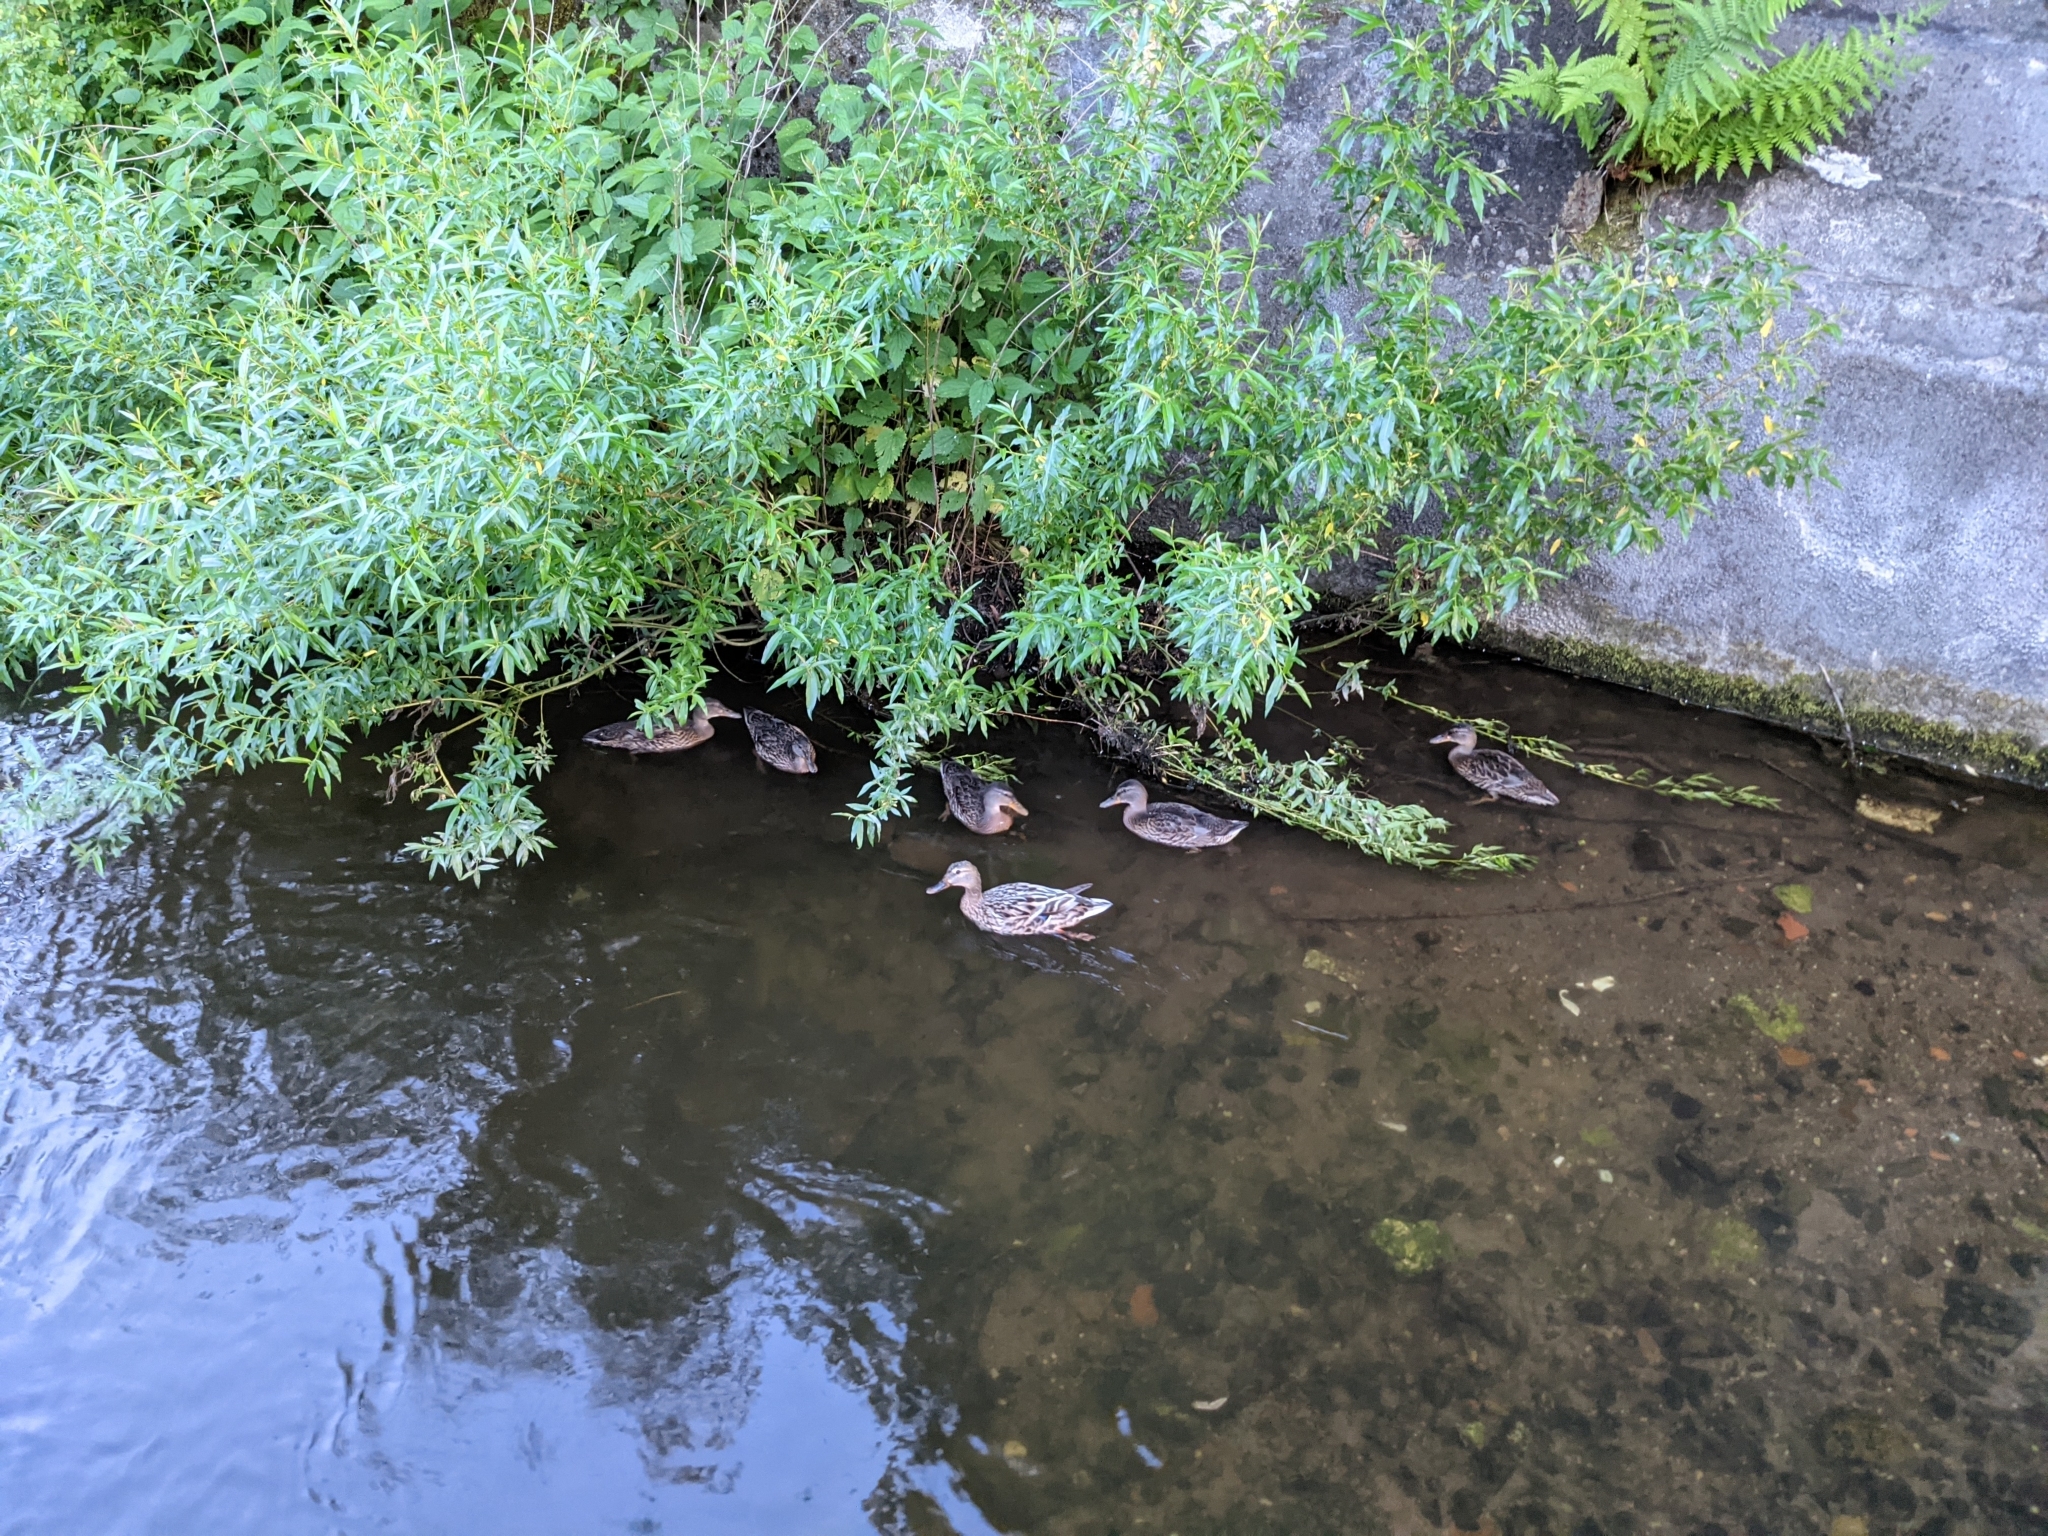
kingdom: Animalia
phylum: Chordata
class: Aves
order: Anseriformes
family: Anatidae
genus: Anas
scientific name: Anas platyrhynchos
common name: Mallard
